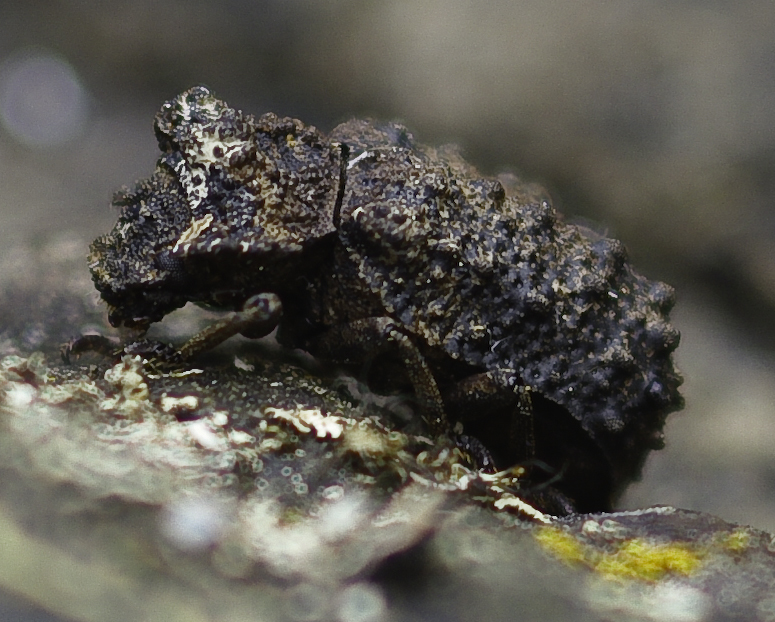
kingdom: Animalia
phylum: Arthropoda
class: Insecta
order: Coleoptera
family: Tenebrionidae
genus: Gnatocerus
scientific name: Gnatocerus cornutus
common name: Broad-horned flour beetle
